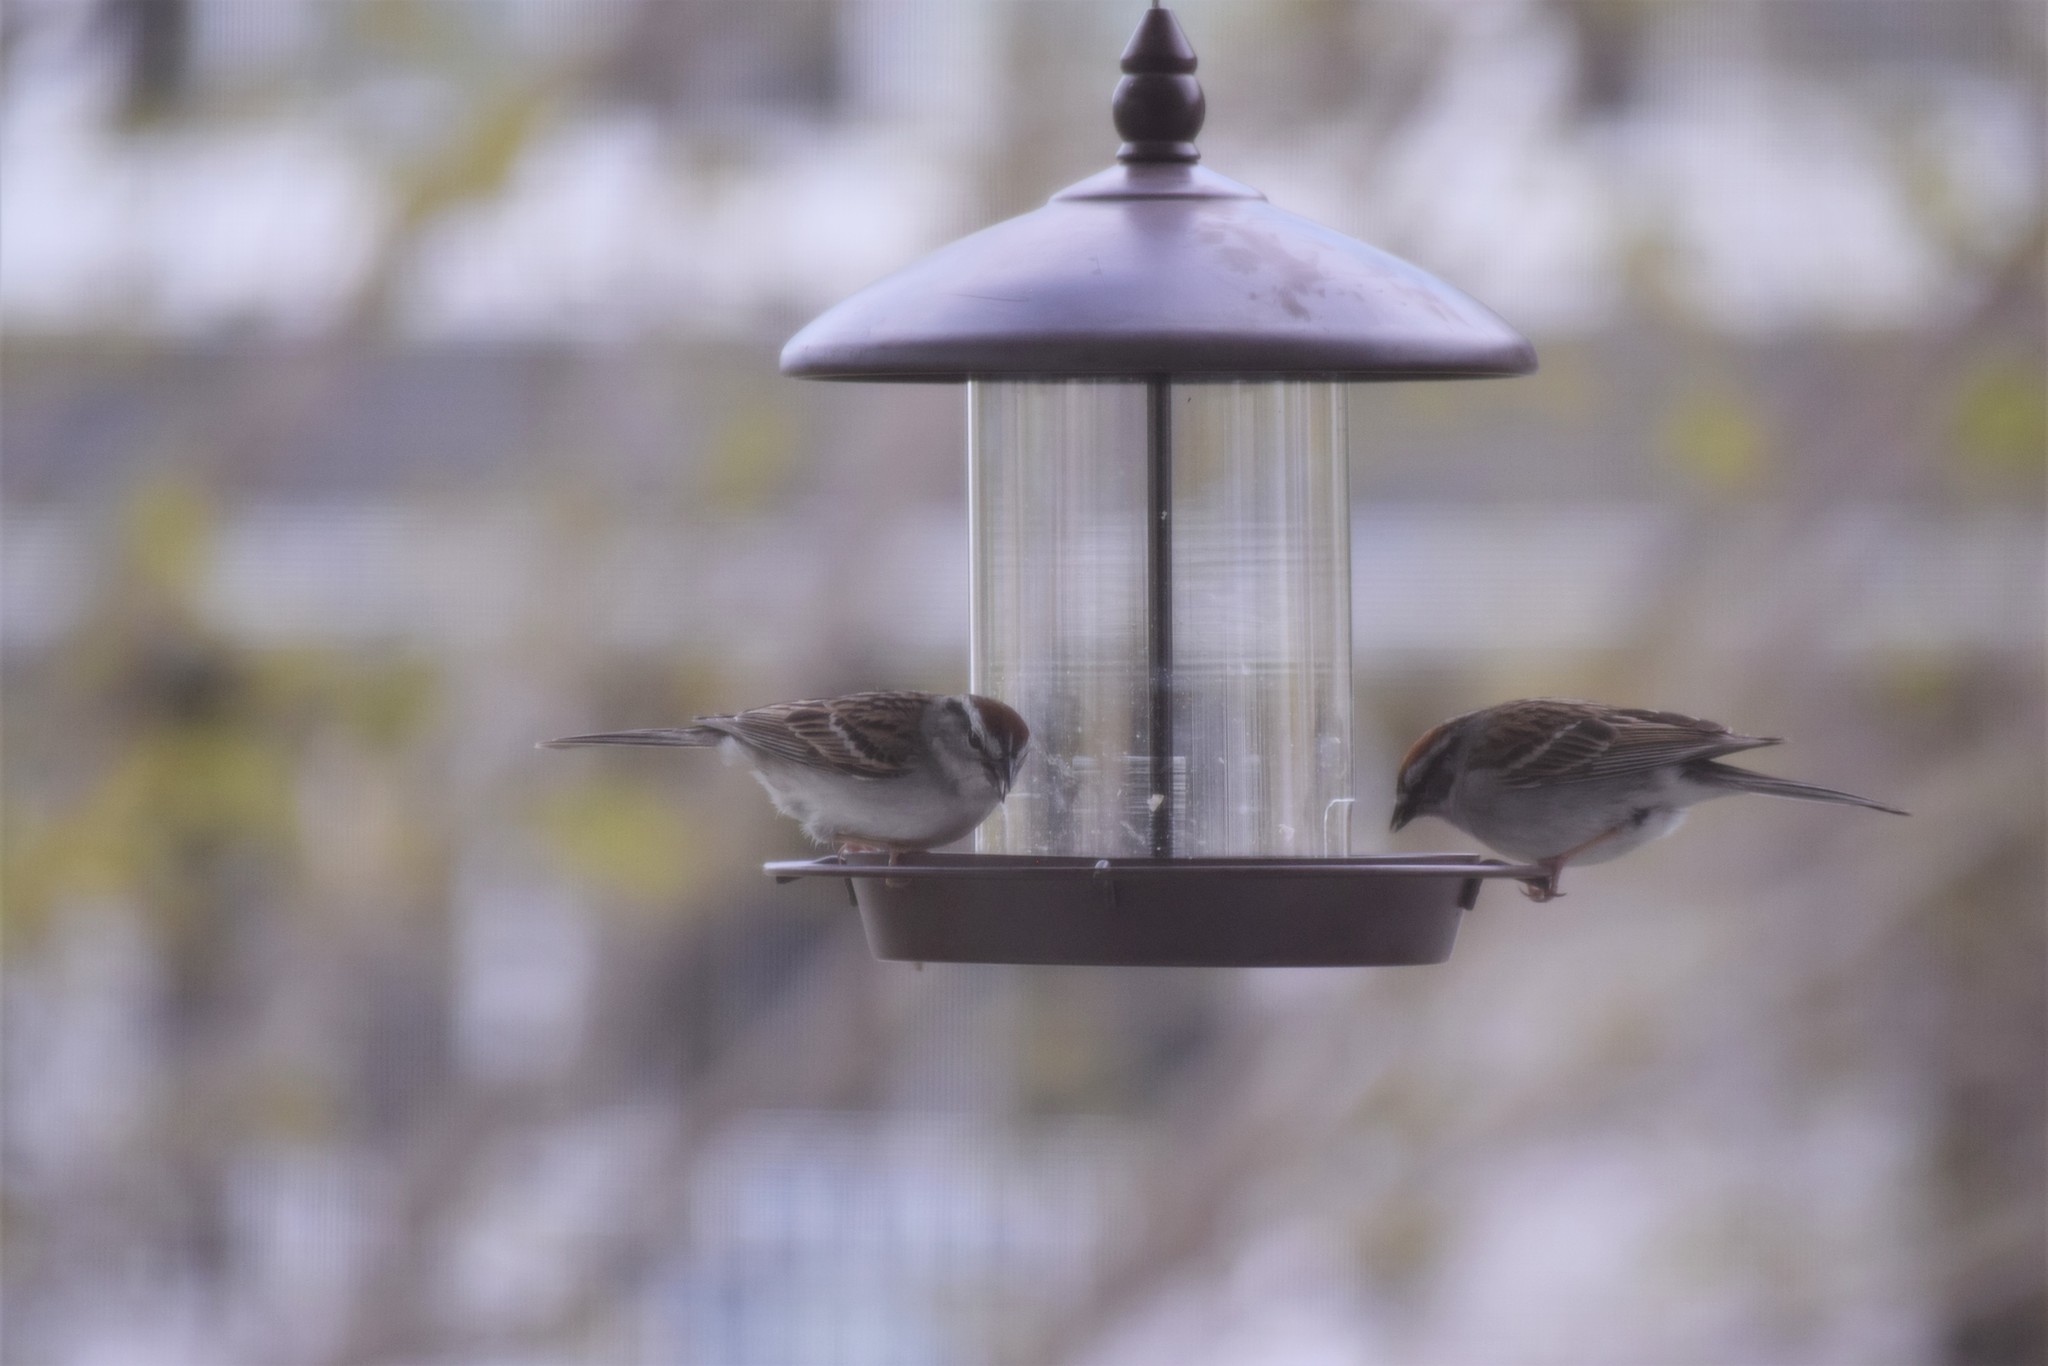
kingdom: Animalia
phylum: Chordata
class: Aves
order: Passeriformes
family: Passerellidae
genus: Spizella
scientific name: Spizella passerina
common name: Chipping sparrow
